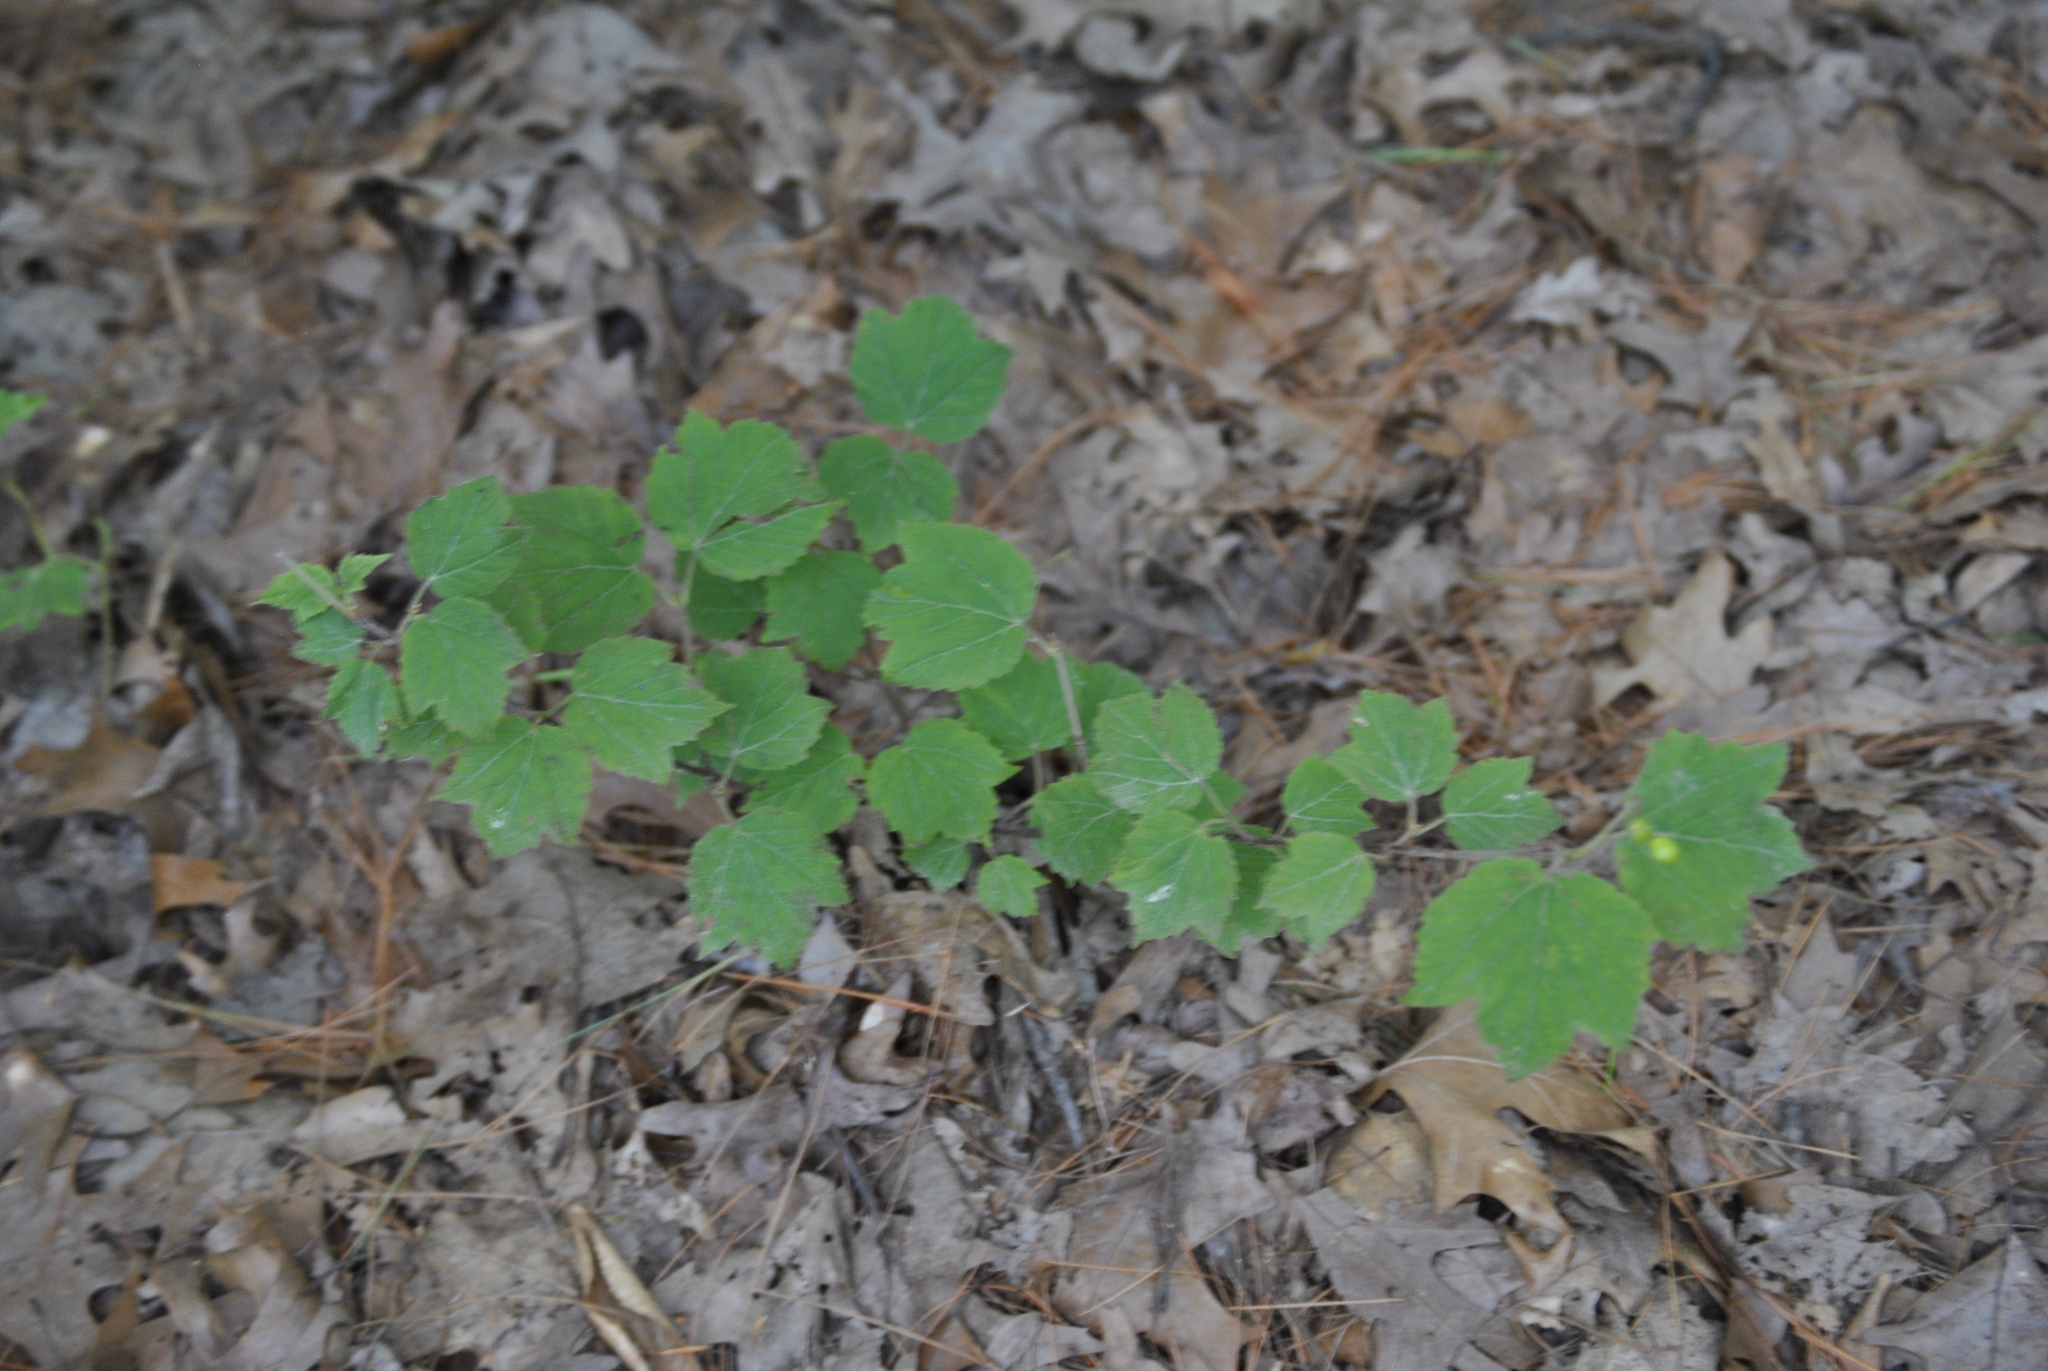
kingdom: Plantae
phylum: Tracheophyta
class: Magnoliopsida
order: Dipsacales
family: Viburnaceae
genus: Viburnum
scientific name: Viburnum acerifolium
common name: Dockmackie
